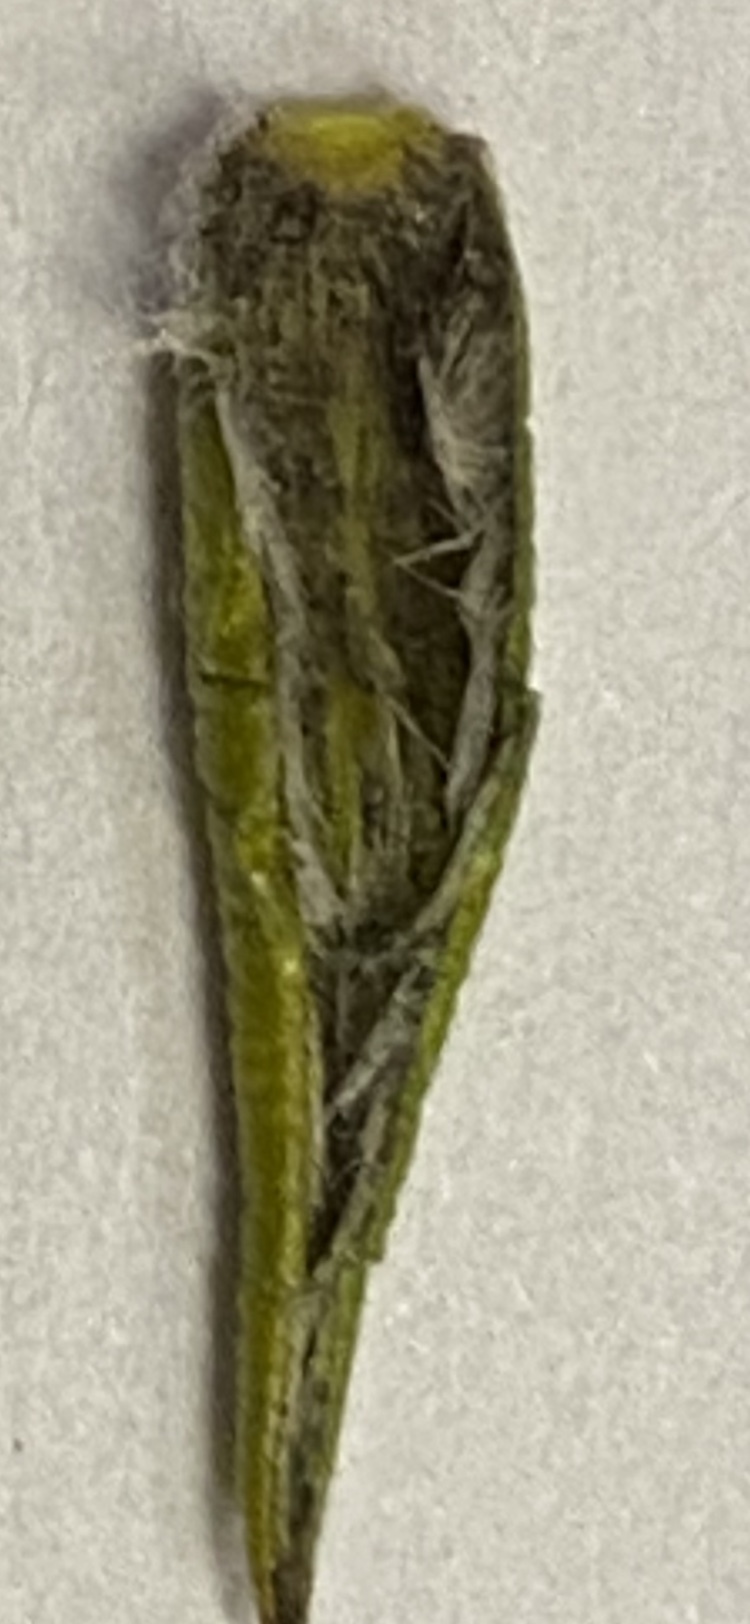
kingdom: Plantae
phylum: Tracheophyta
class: Magnoliopsida
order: Fabales
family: Fabaceae
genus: Amphithalea
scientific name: Amphithalea cymbifolia
